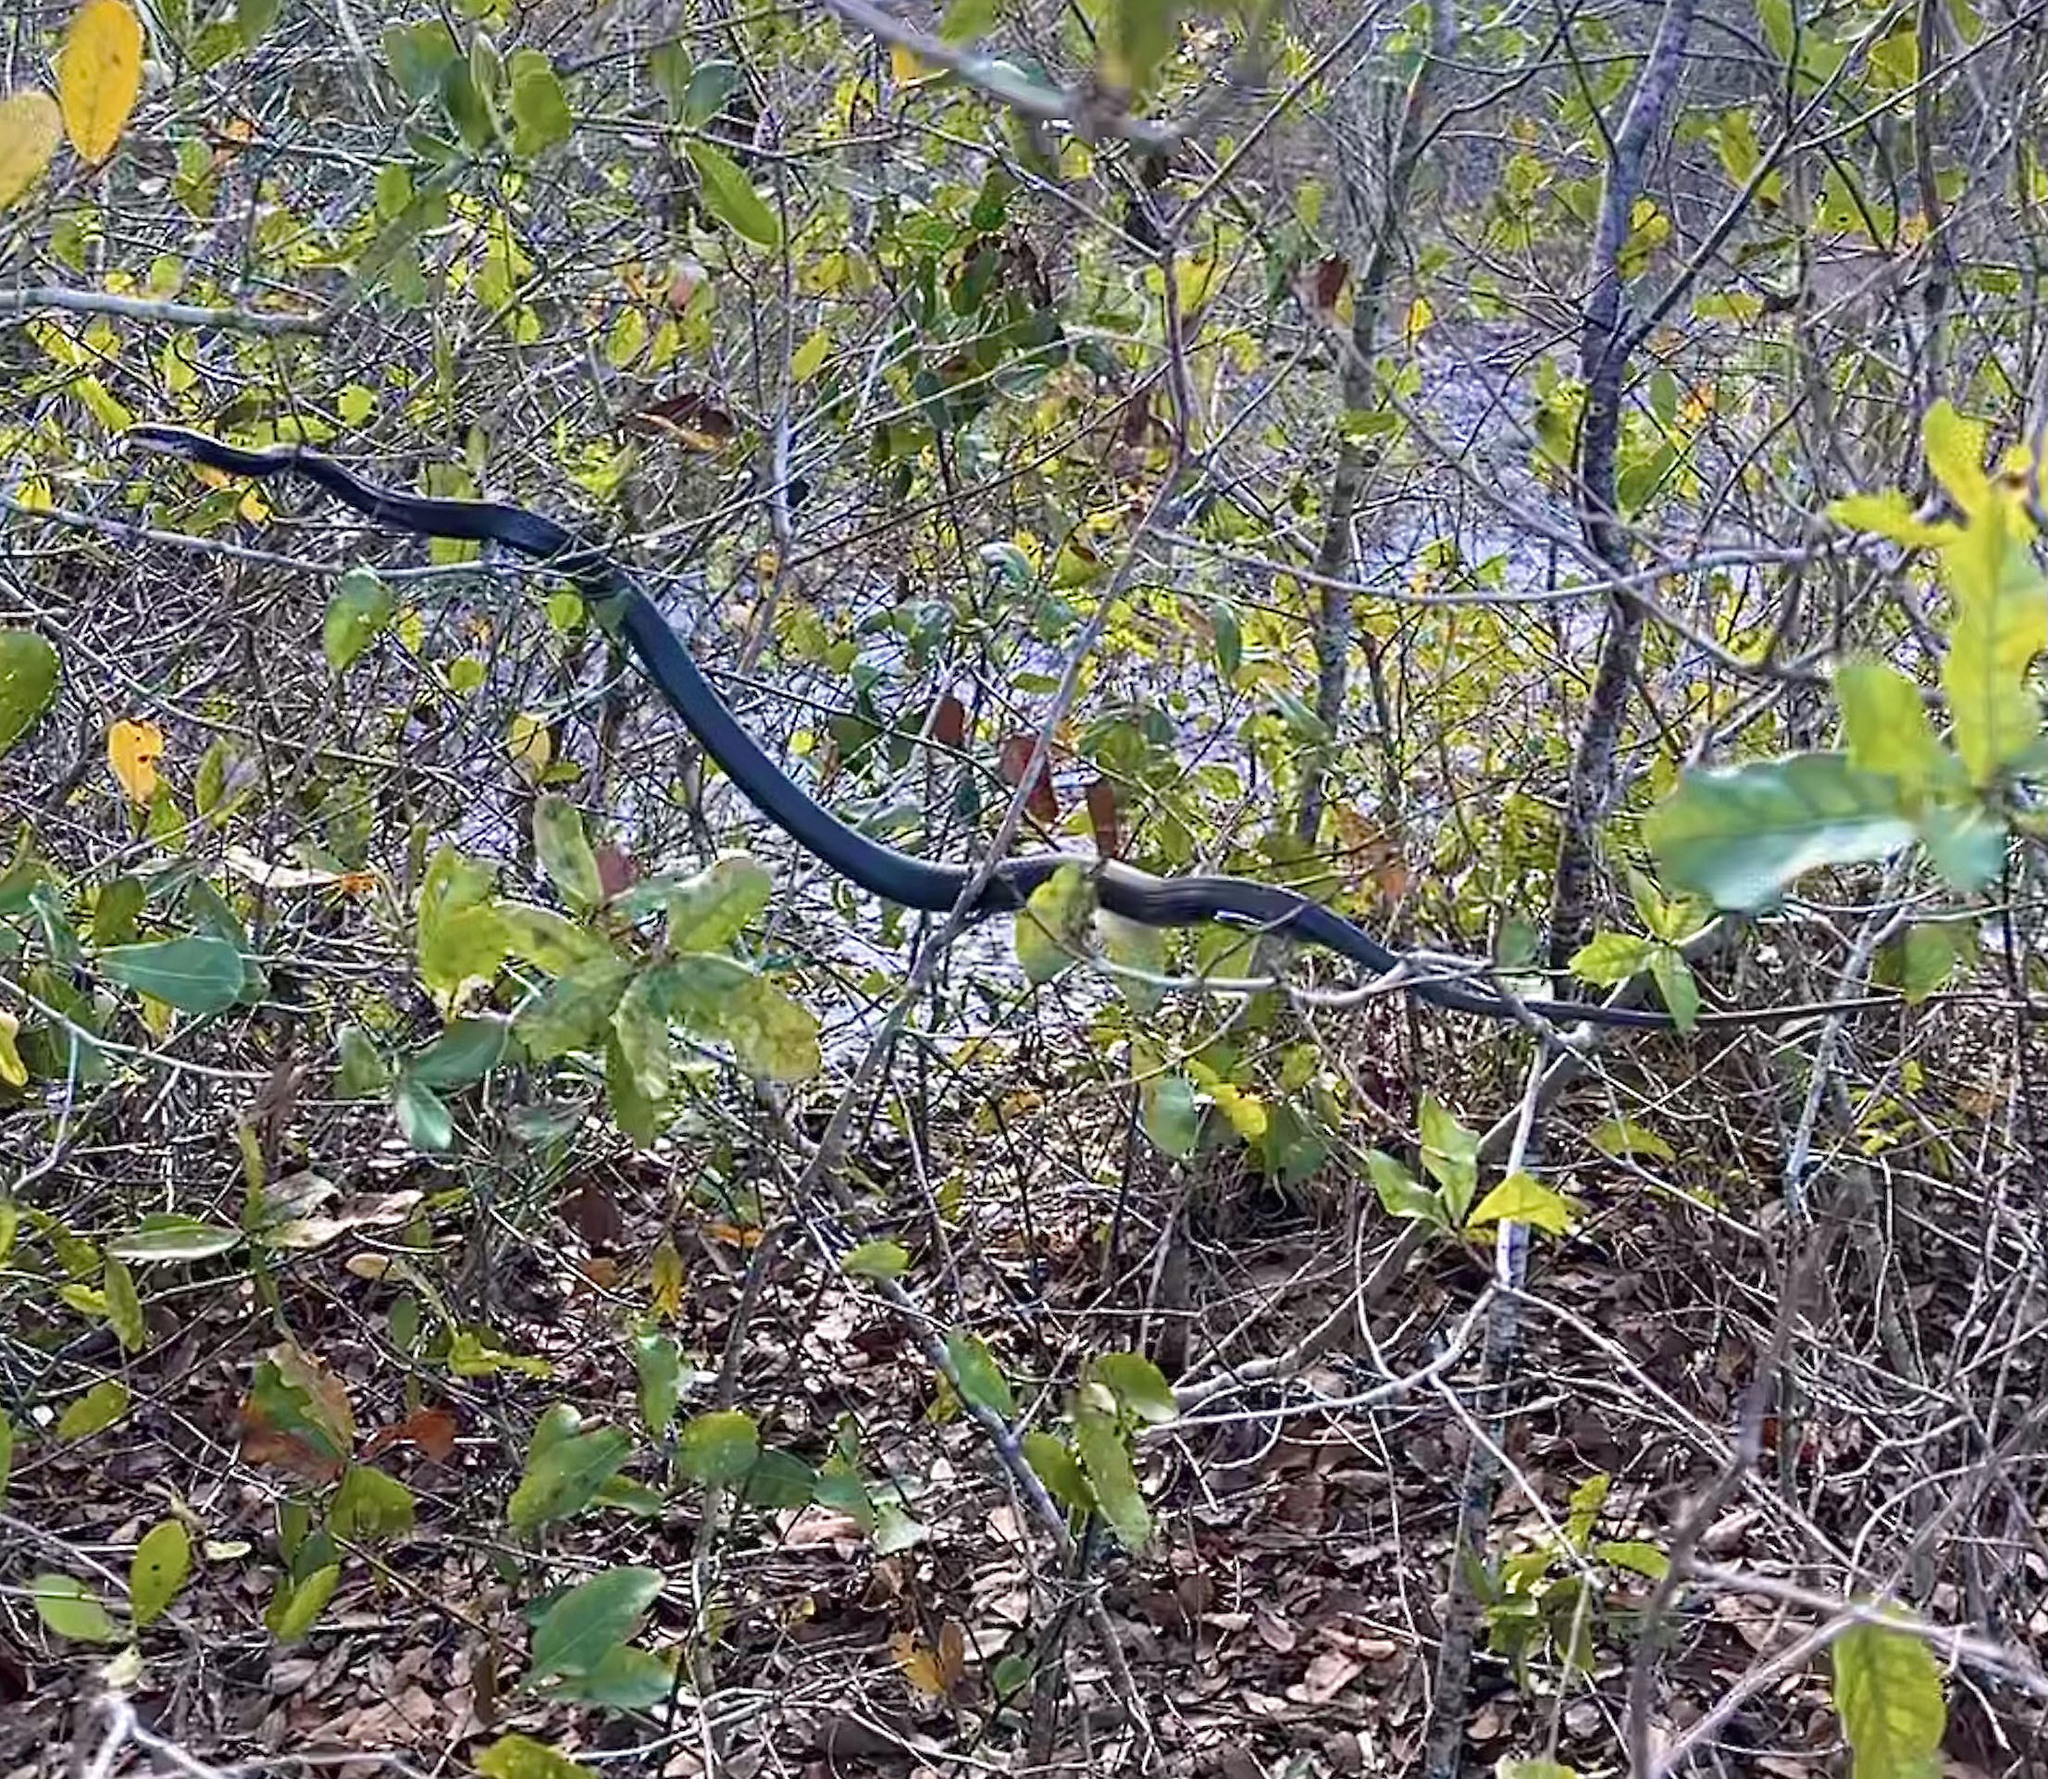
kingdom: Animalia
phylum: Chordata
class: Squamata
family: Colubridae
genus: Coluber
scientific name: Coluber constrictor
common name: Eastern racer
